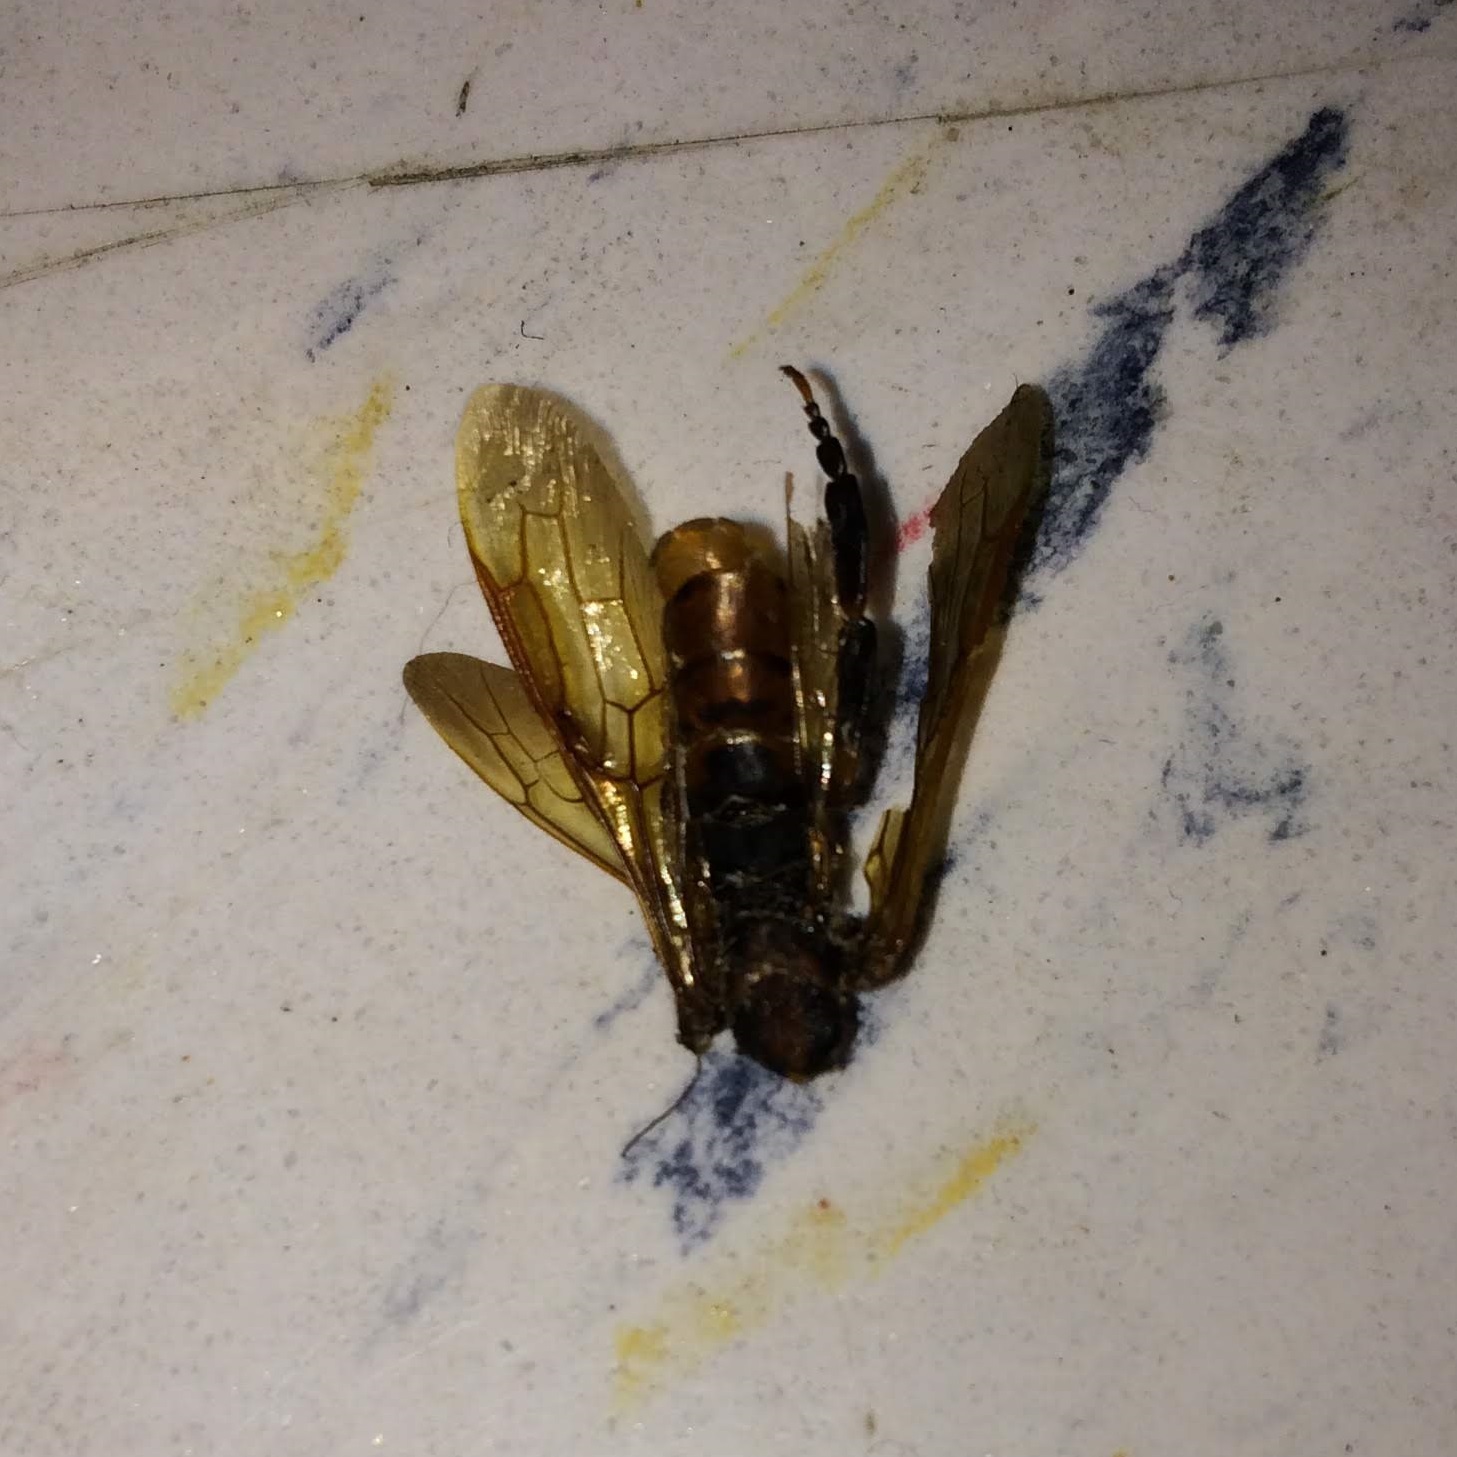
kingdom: Animalia
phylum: Arthropoda
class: Insecta
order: Hymenoptera
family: Siricidae
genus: Tremex
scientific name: Tremex columba
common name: Wasp
